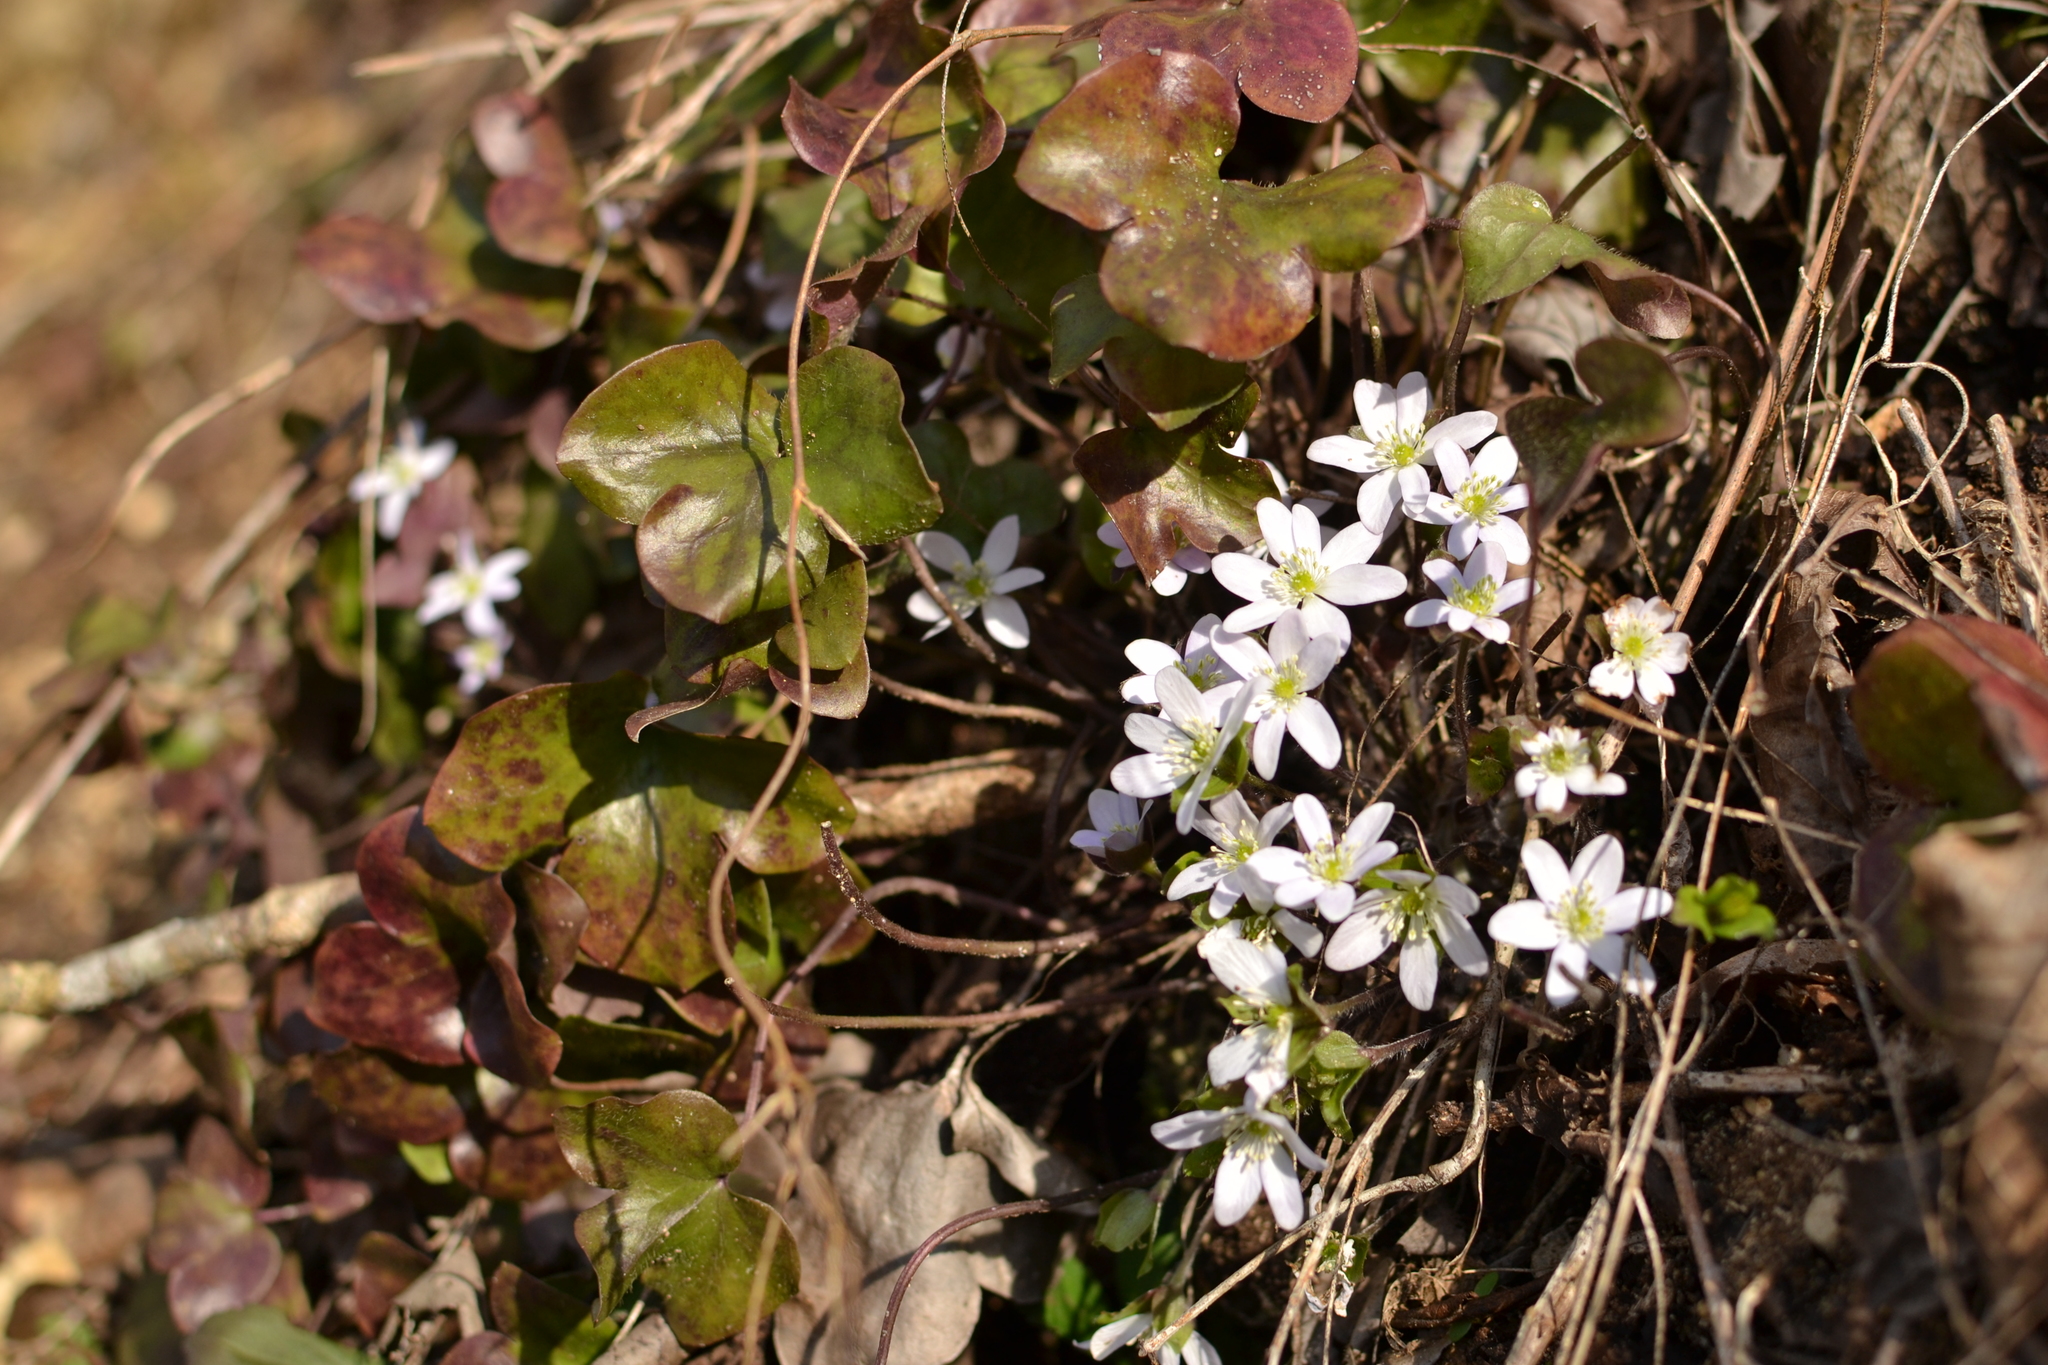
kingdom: Plantae
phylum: Tracheophyta
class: Magnoliopsida
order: Ranunculales
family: Ranunculaceae
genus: Hepatica
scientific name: Hepatica americana
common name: American hepatica
